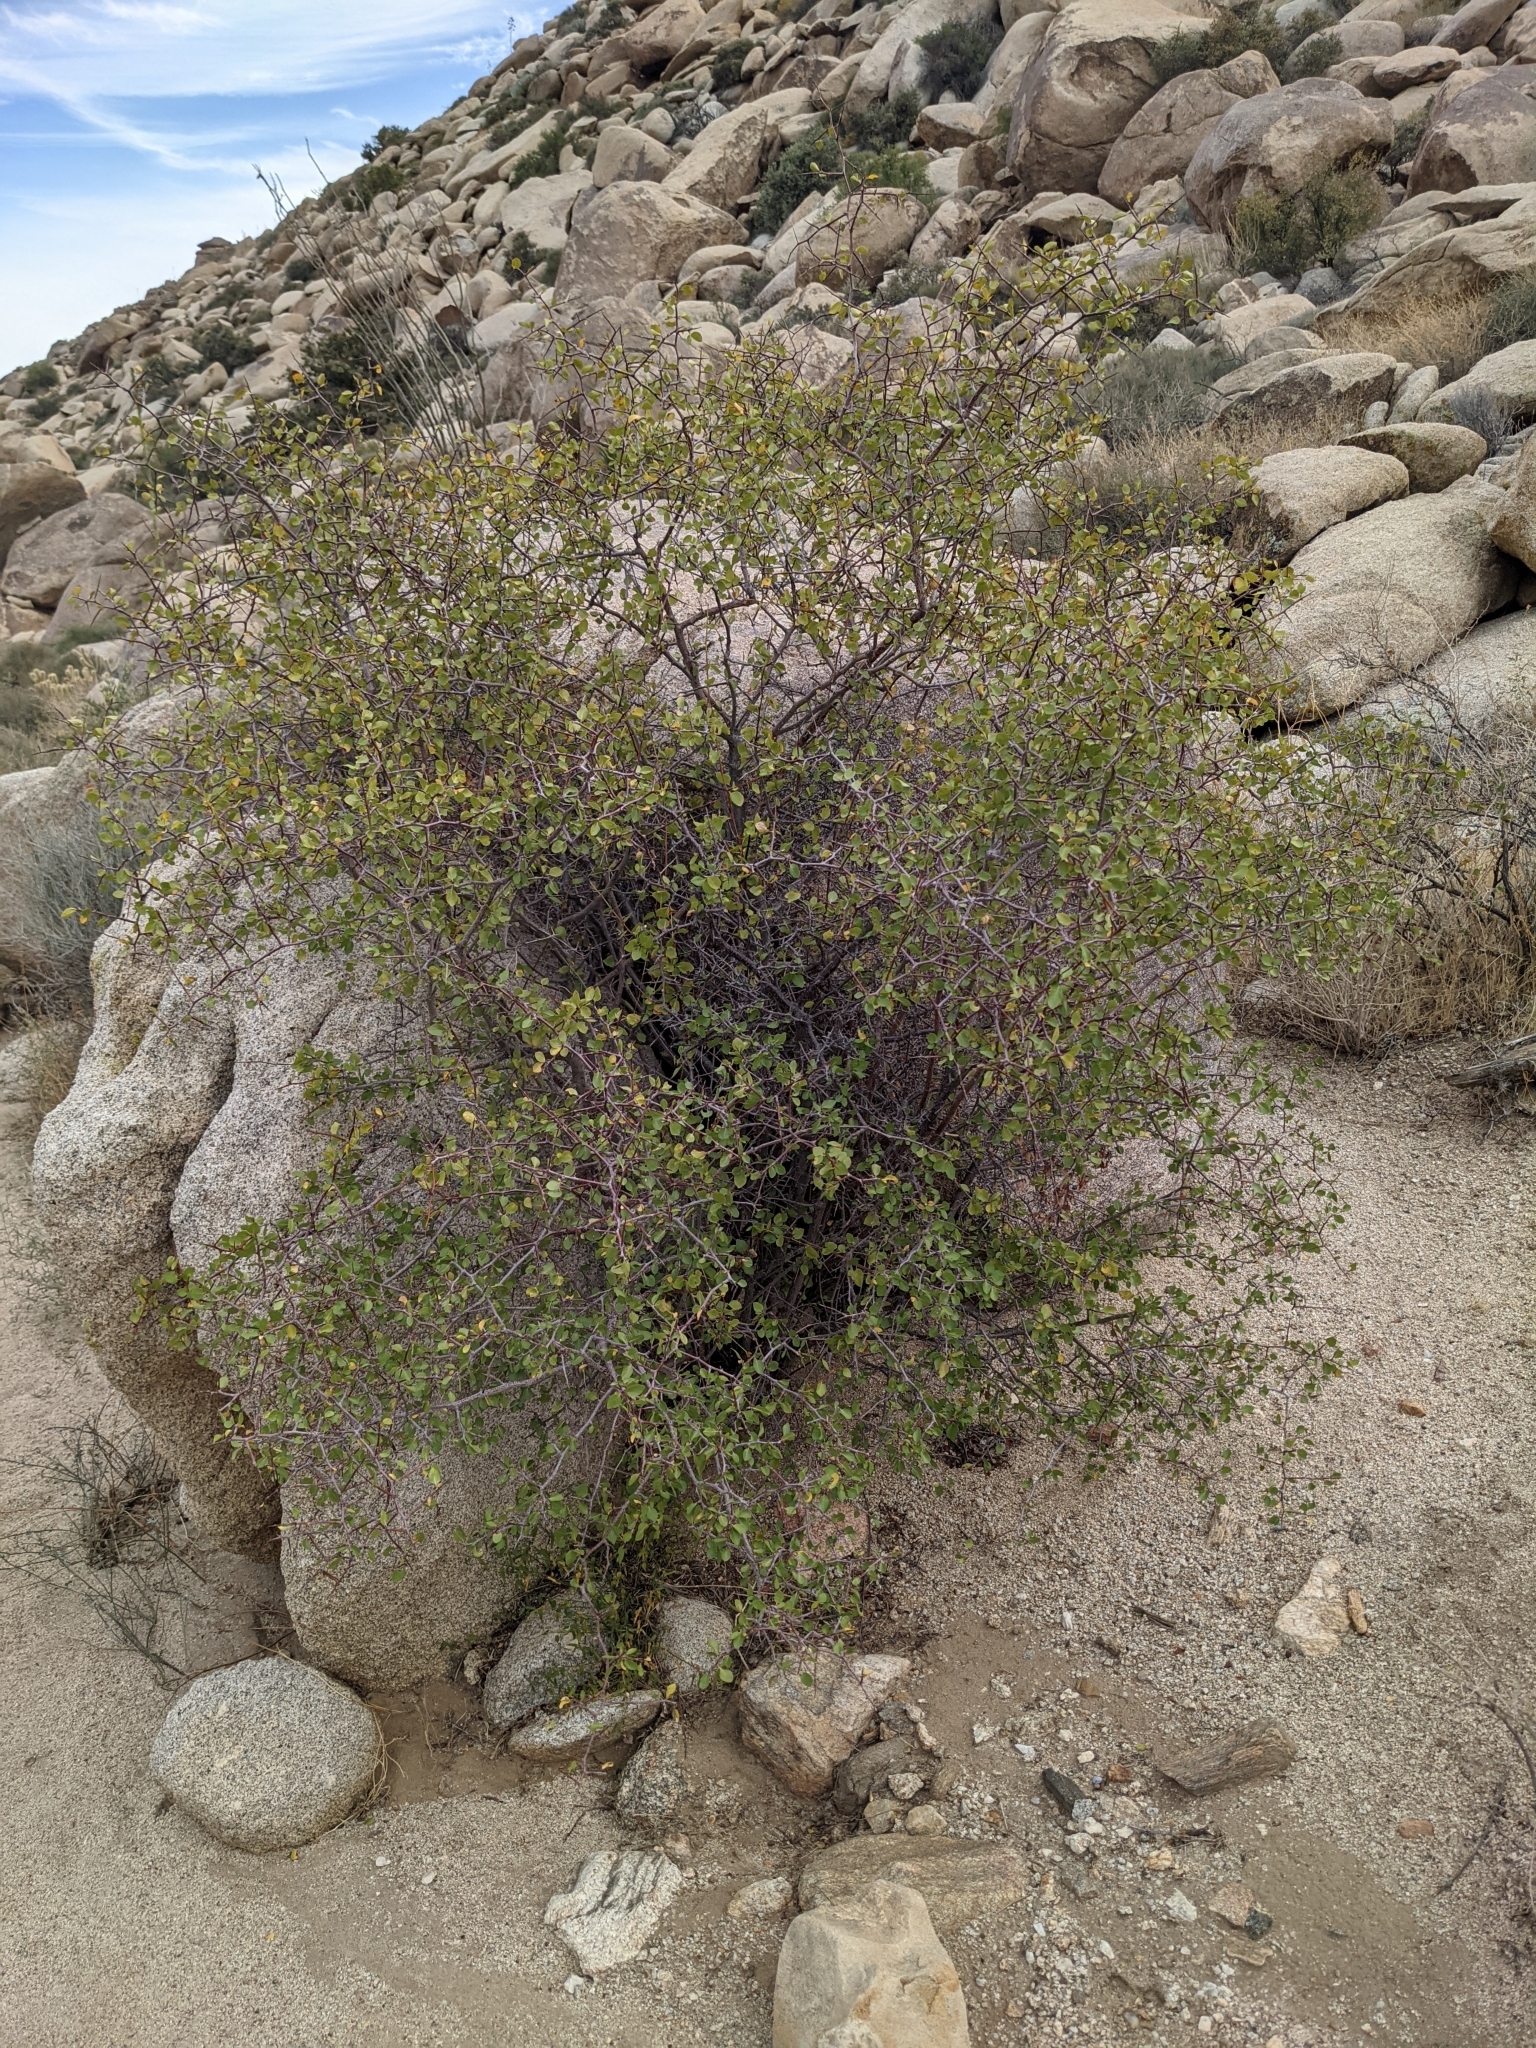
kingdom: Plantae
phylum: Tracheophyta
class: Magnoliopsida
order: Rosales
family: Rosaceae
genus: Prunus
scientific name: Prunus fremontii
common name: Desert apricot
